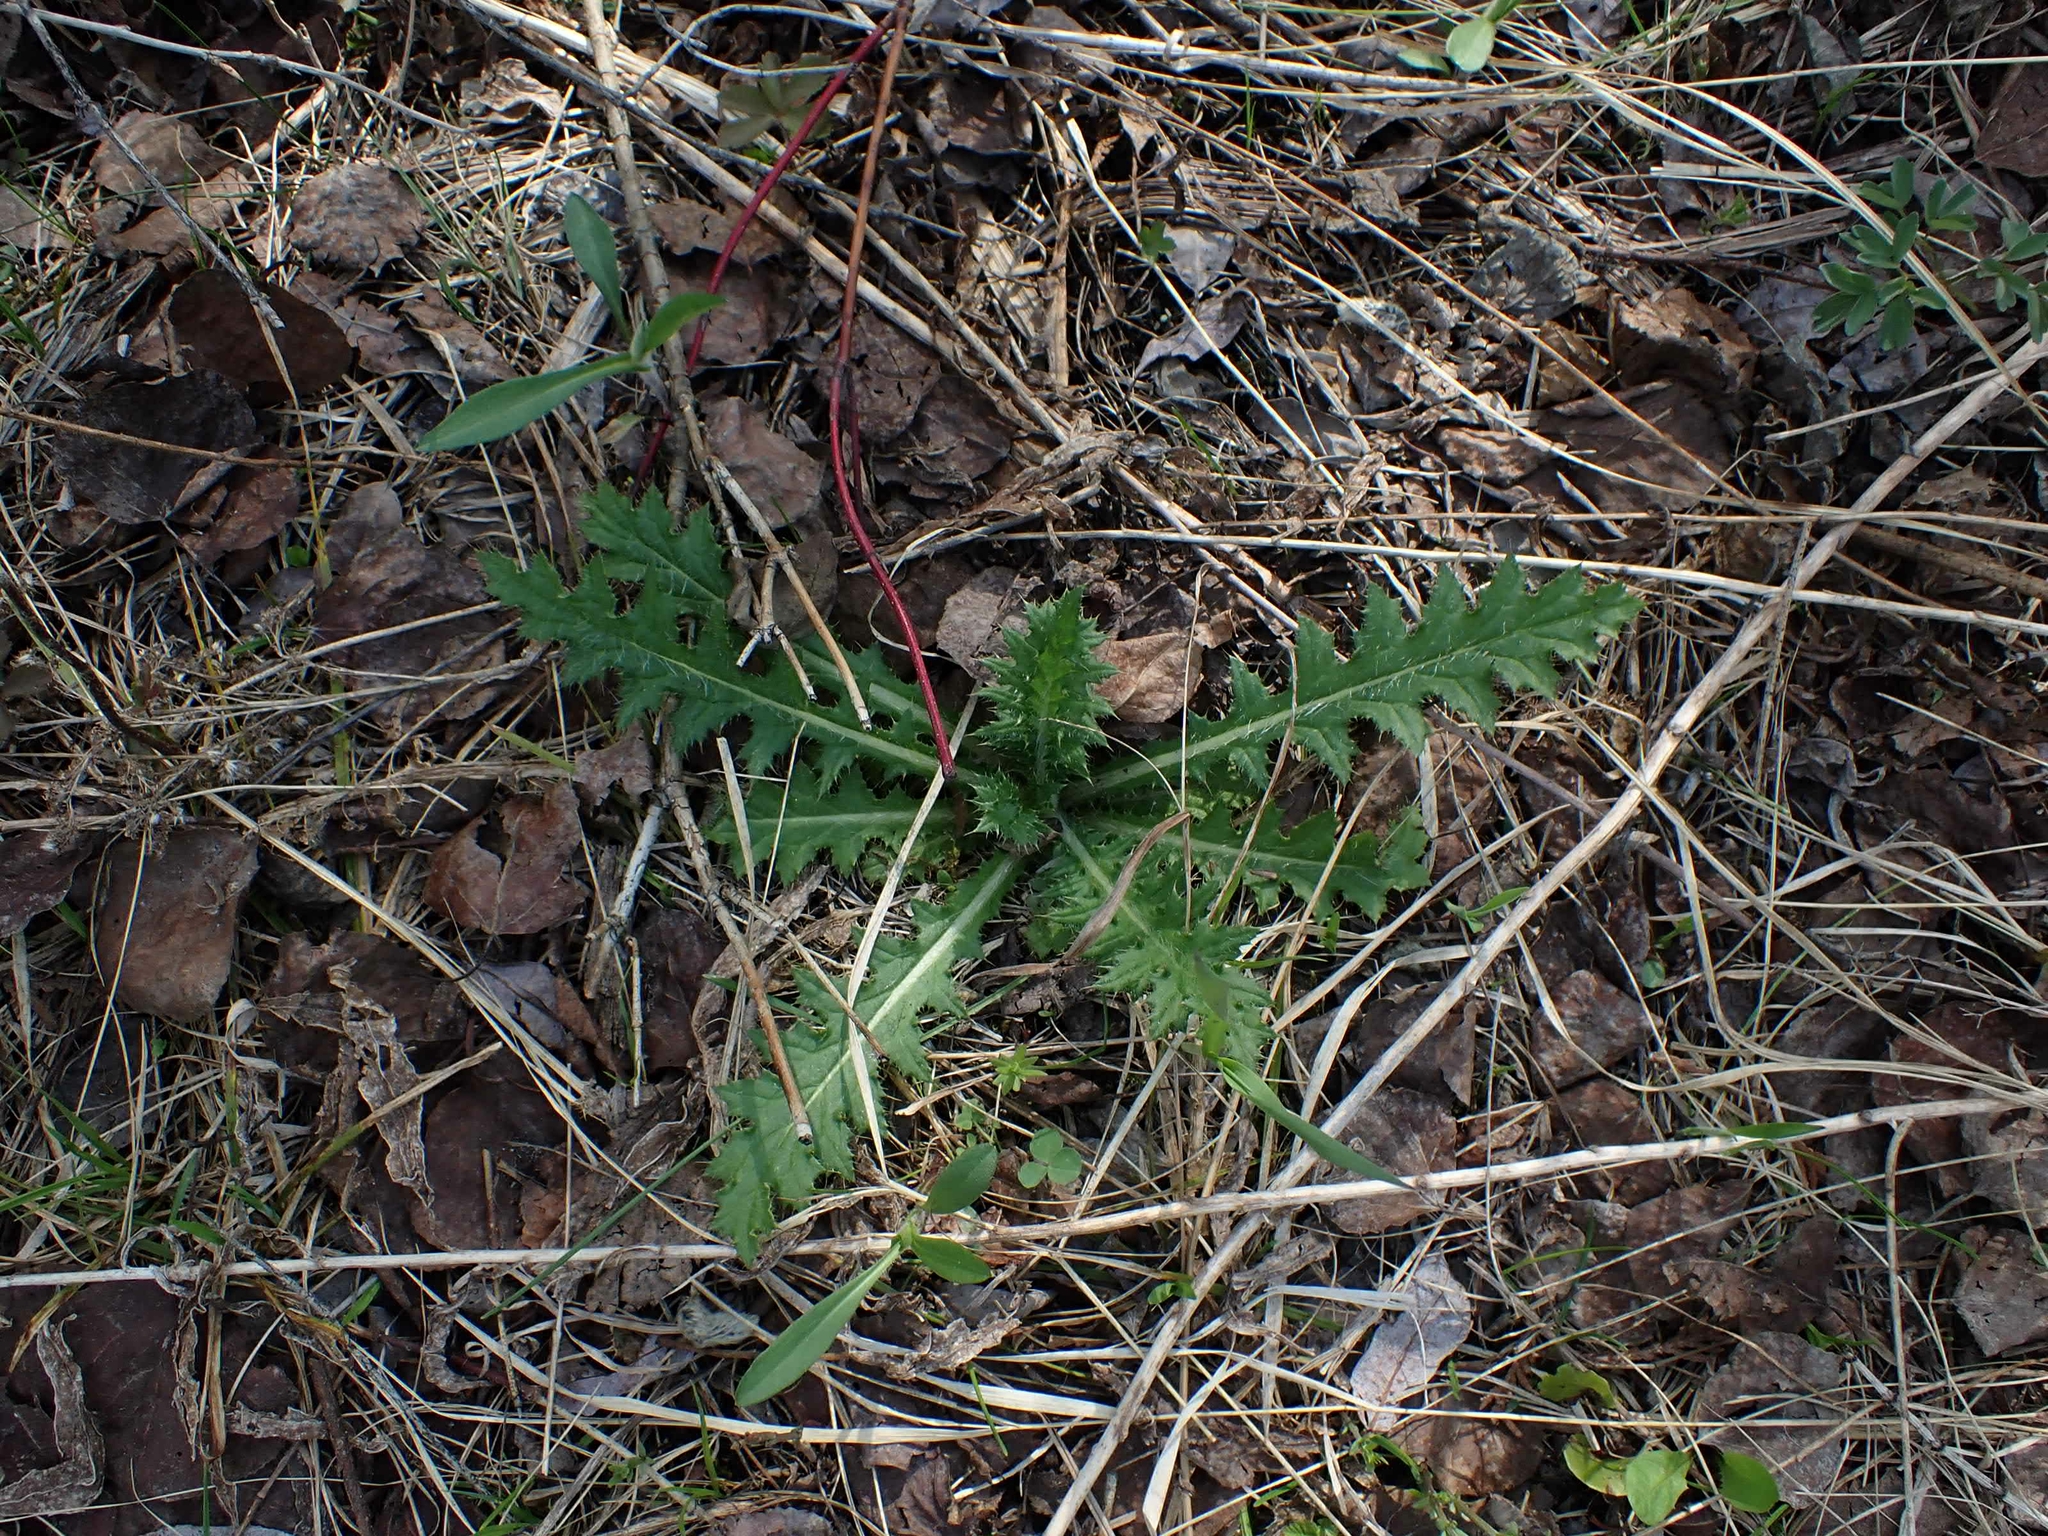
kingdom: Plantae
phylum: Tracheophyta
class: Magnoliopsida
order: Asterales
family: Asteraceae
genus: Cirsium
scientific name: Cirsium muticum
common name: Dunce-nettle
